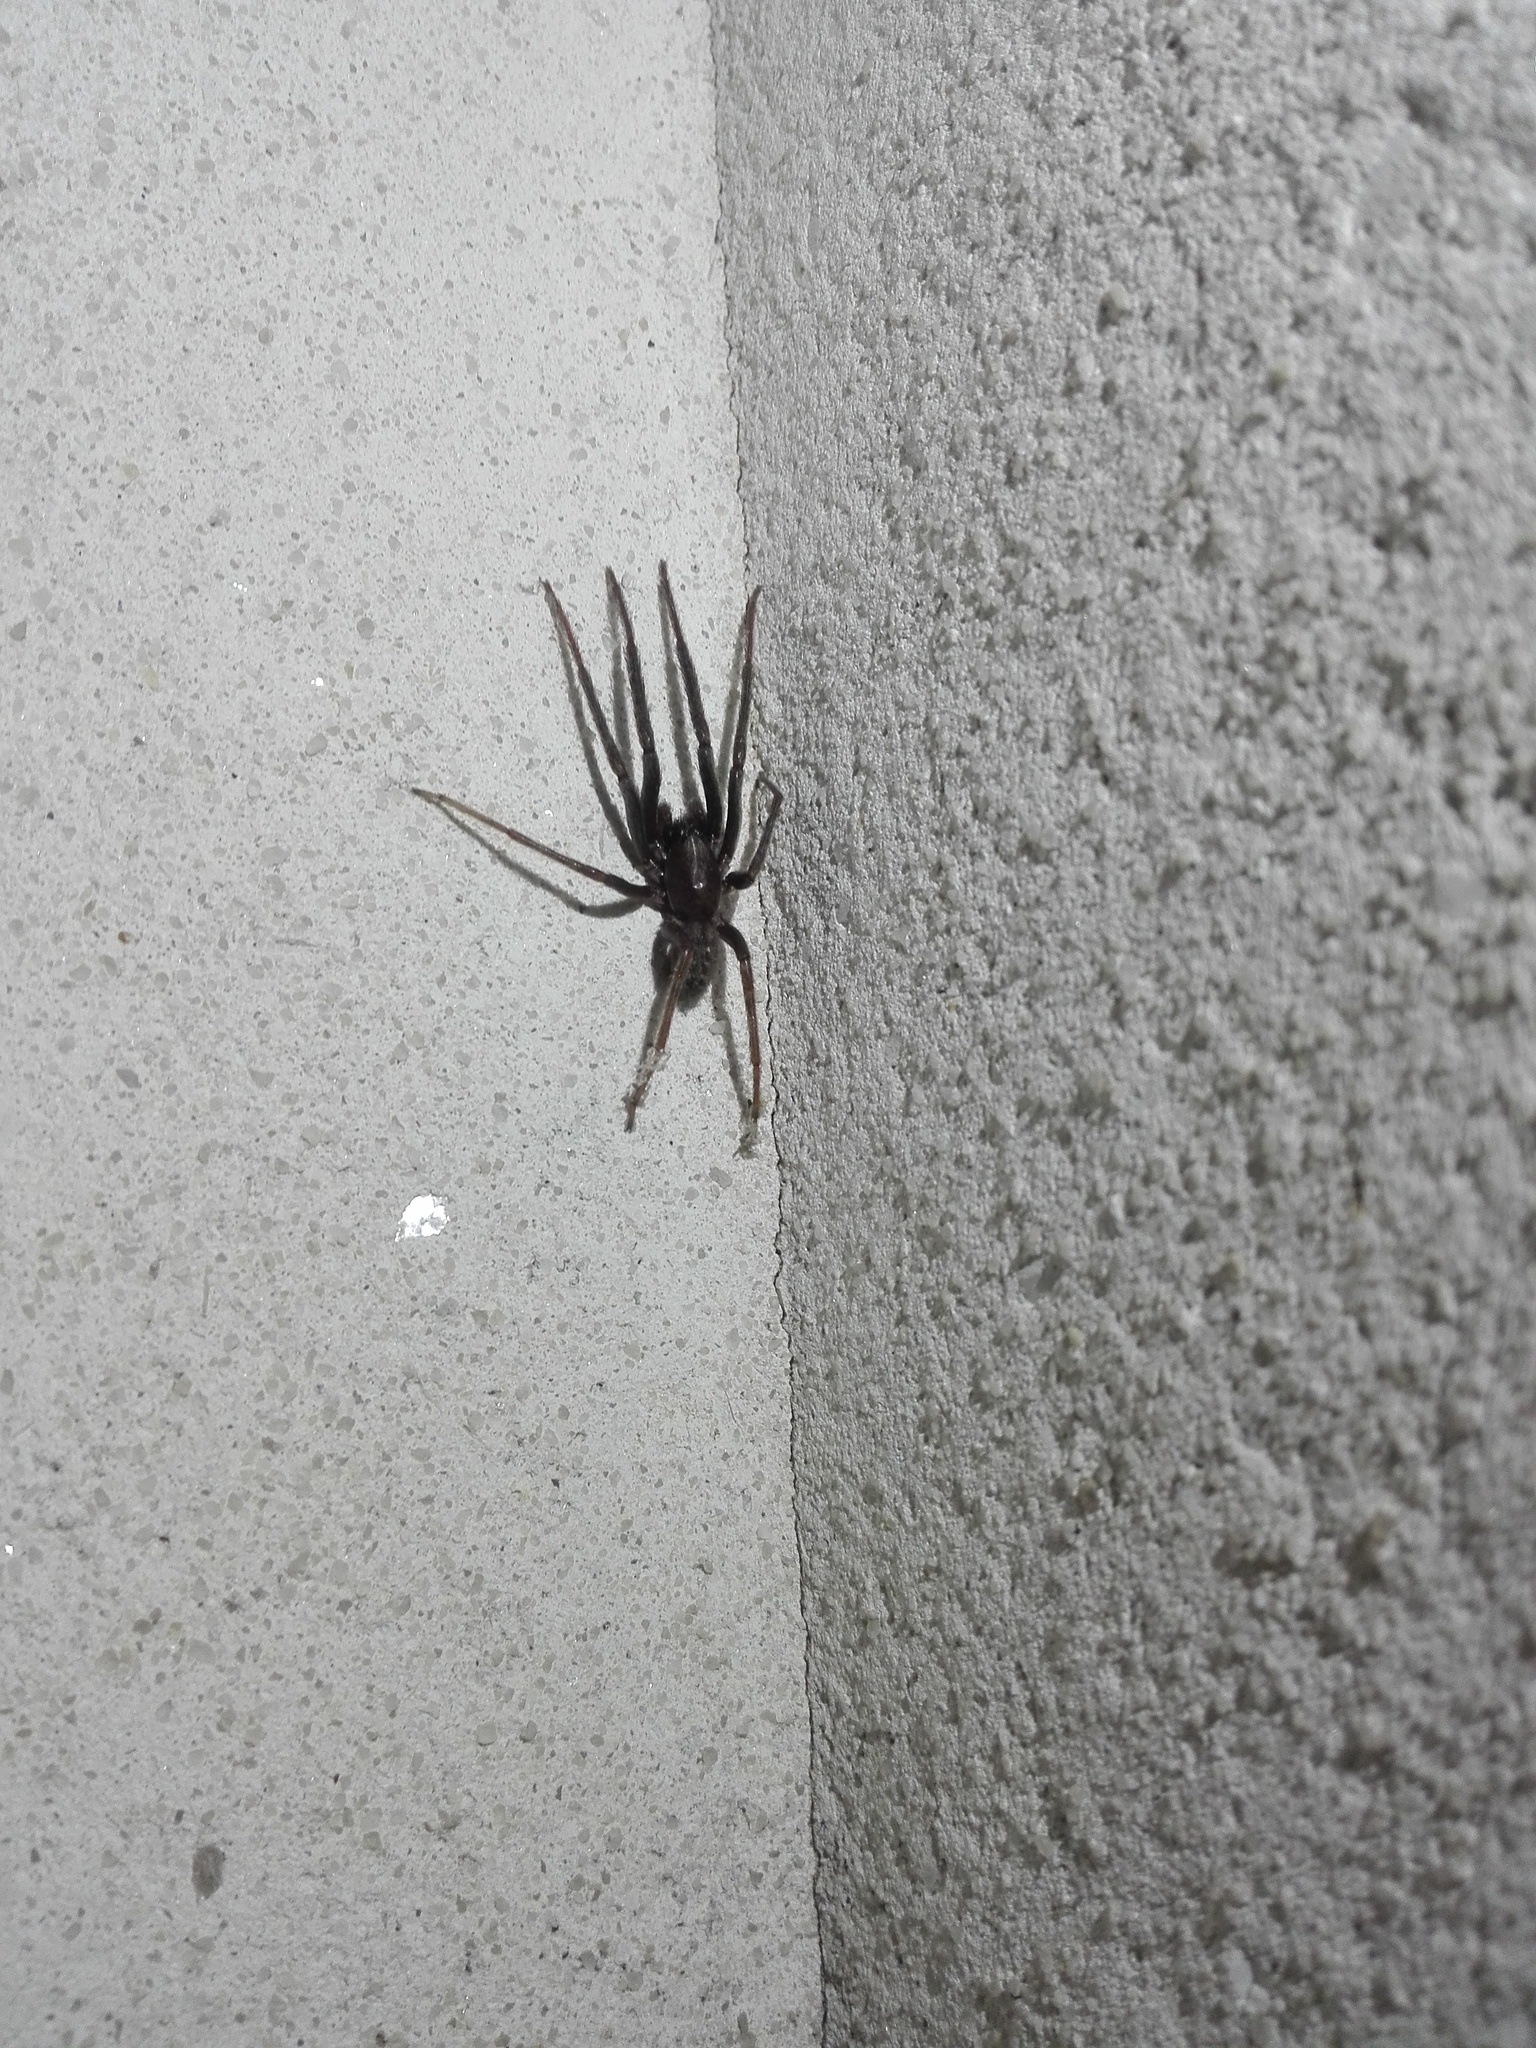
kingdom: Animalia
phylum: Arthropoda
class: Arachnida
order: Araneae
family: Segestriidae
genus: Segestria
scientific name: Segestria florentina
